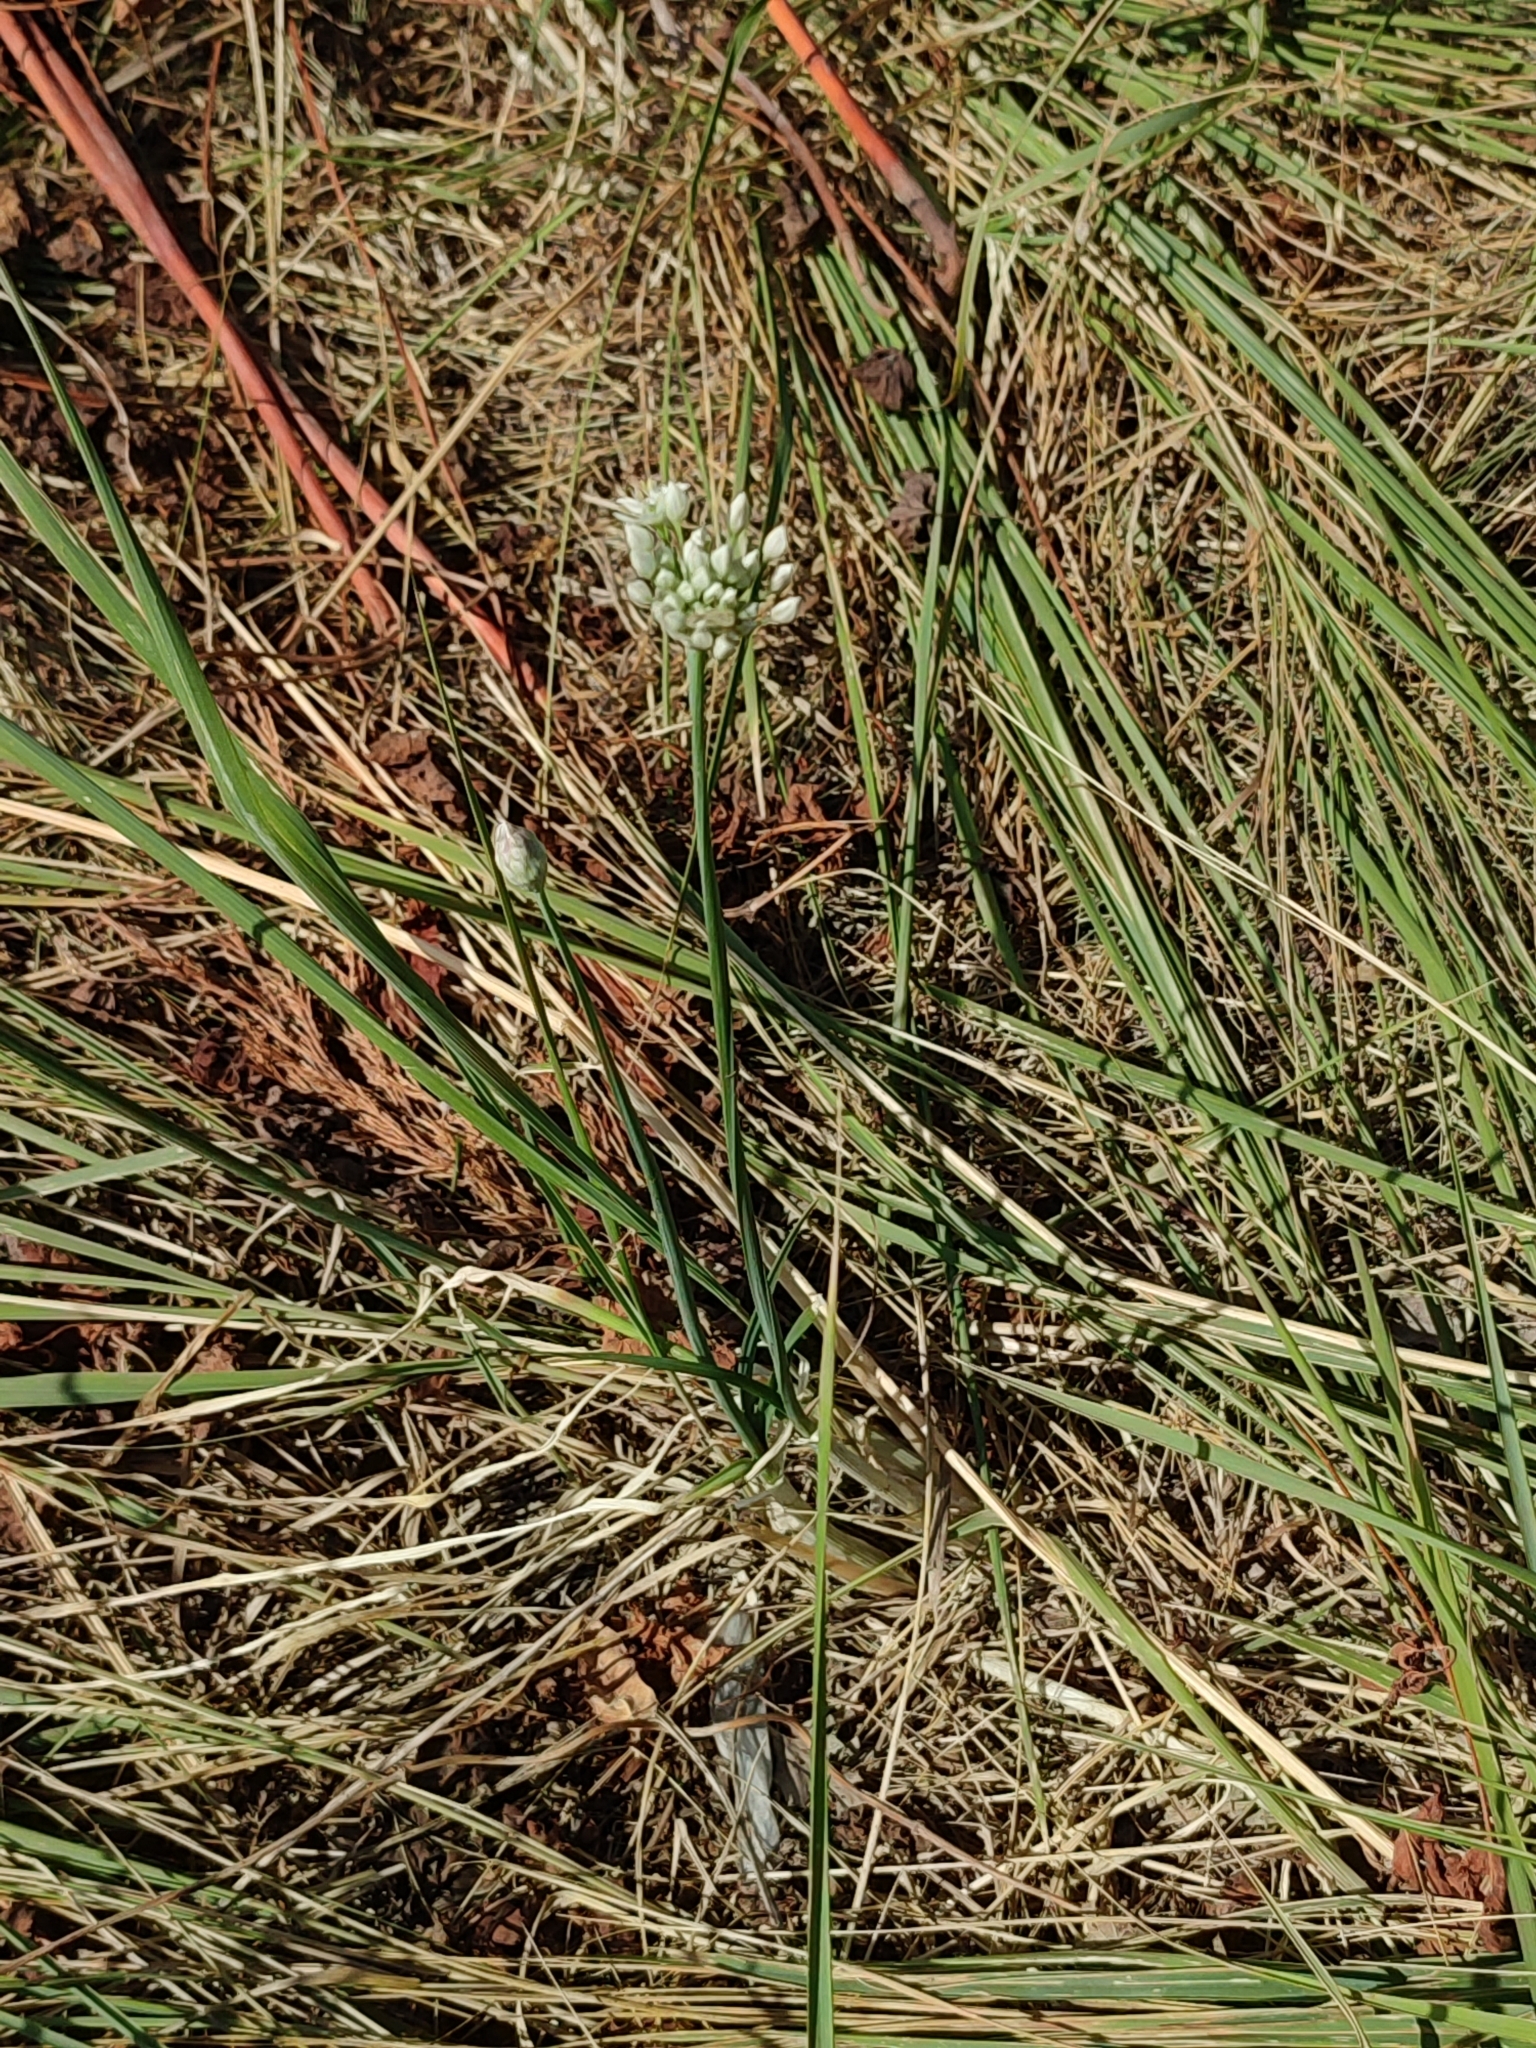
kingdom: Plantae
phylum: Tracheophyta
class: Liliopsida
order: Asparagales
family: Amaryllidaceae
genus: Allium
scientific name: Allium tuberosum
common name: Chinese chives
